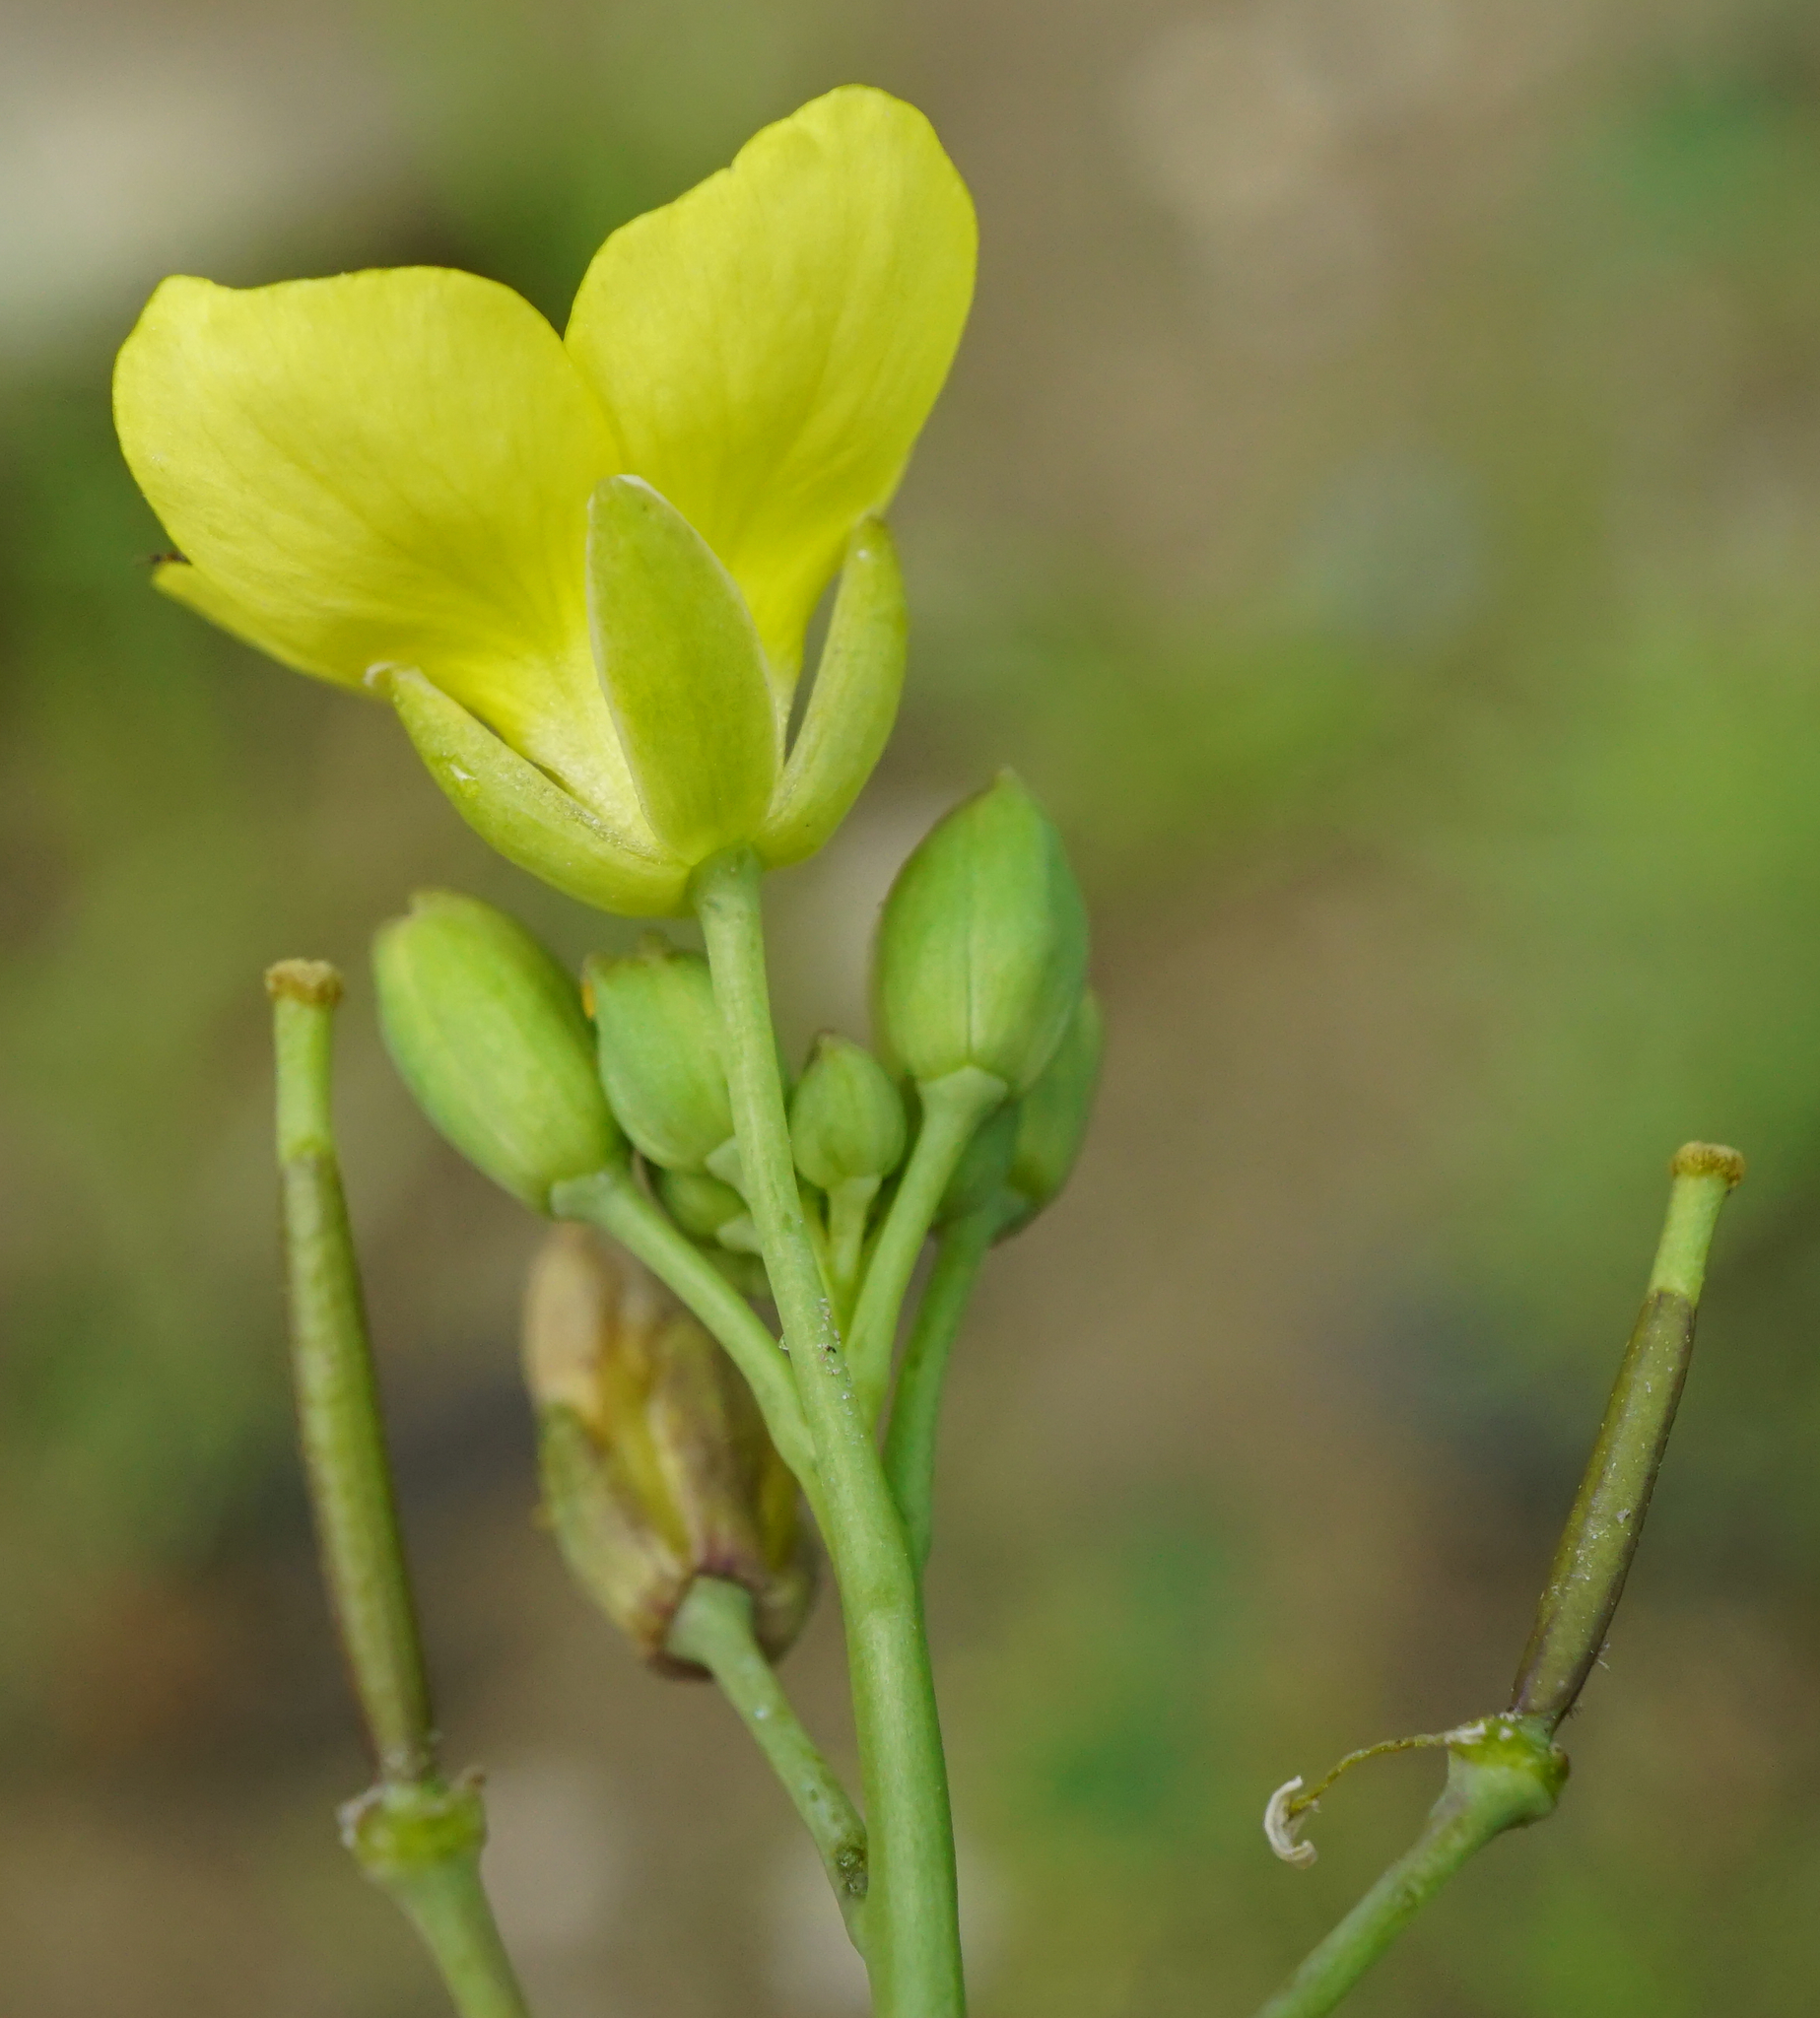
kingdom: Plantae
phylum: Tracheophyta
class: Magnoliopsida
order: Brassicales
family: Brassicaceae
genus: Diplotaxis
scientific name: Diplotaxis tenuifolia
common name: Perennial wall-rocket
